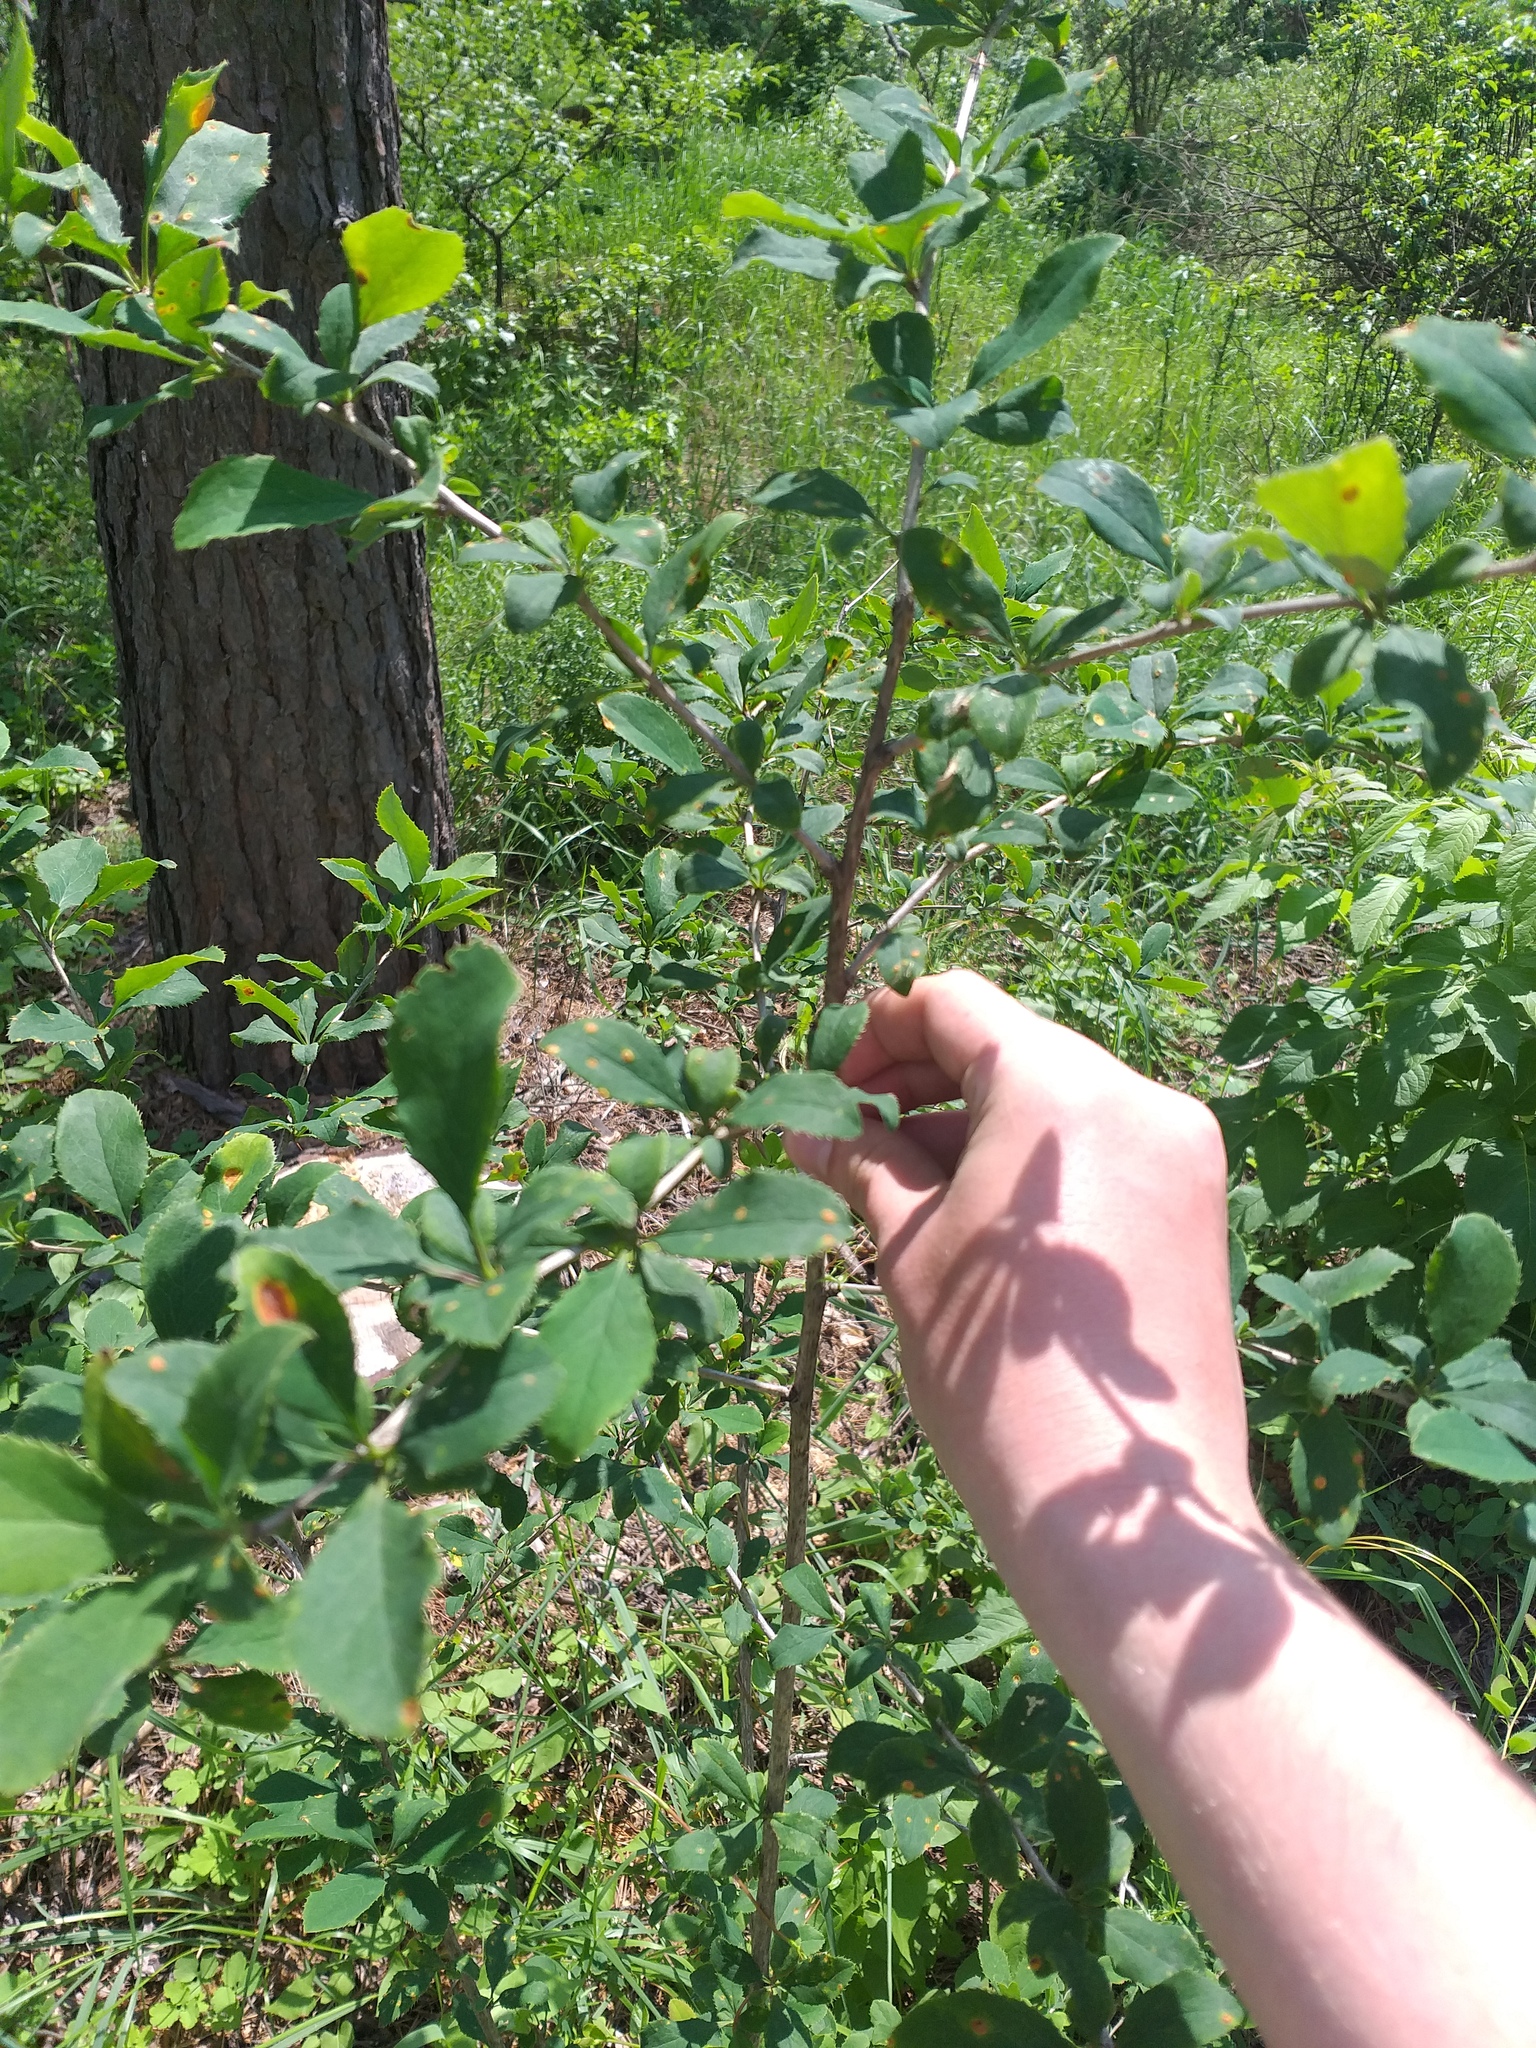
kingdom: Plantae
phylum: Tracheophyta
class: Magnoliopsida
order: Ranunculales
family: Berberidaceae
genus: Berberis
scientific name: Berberis vulgaris
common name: Barberry
